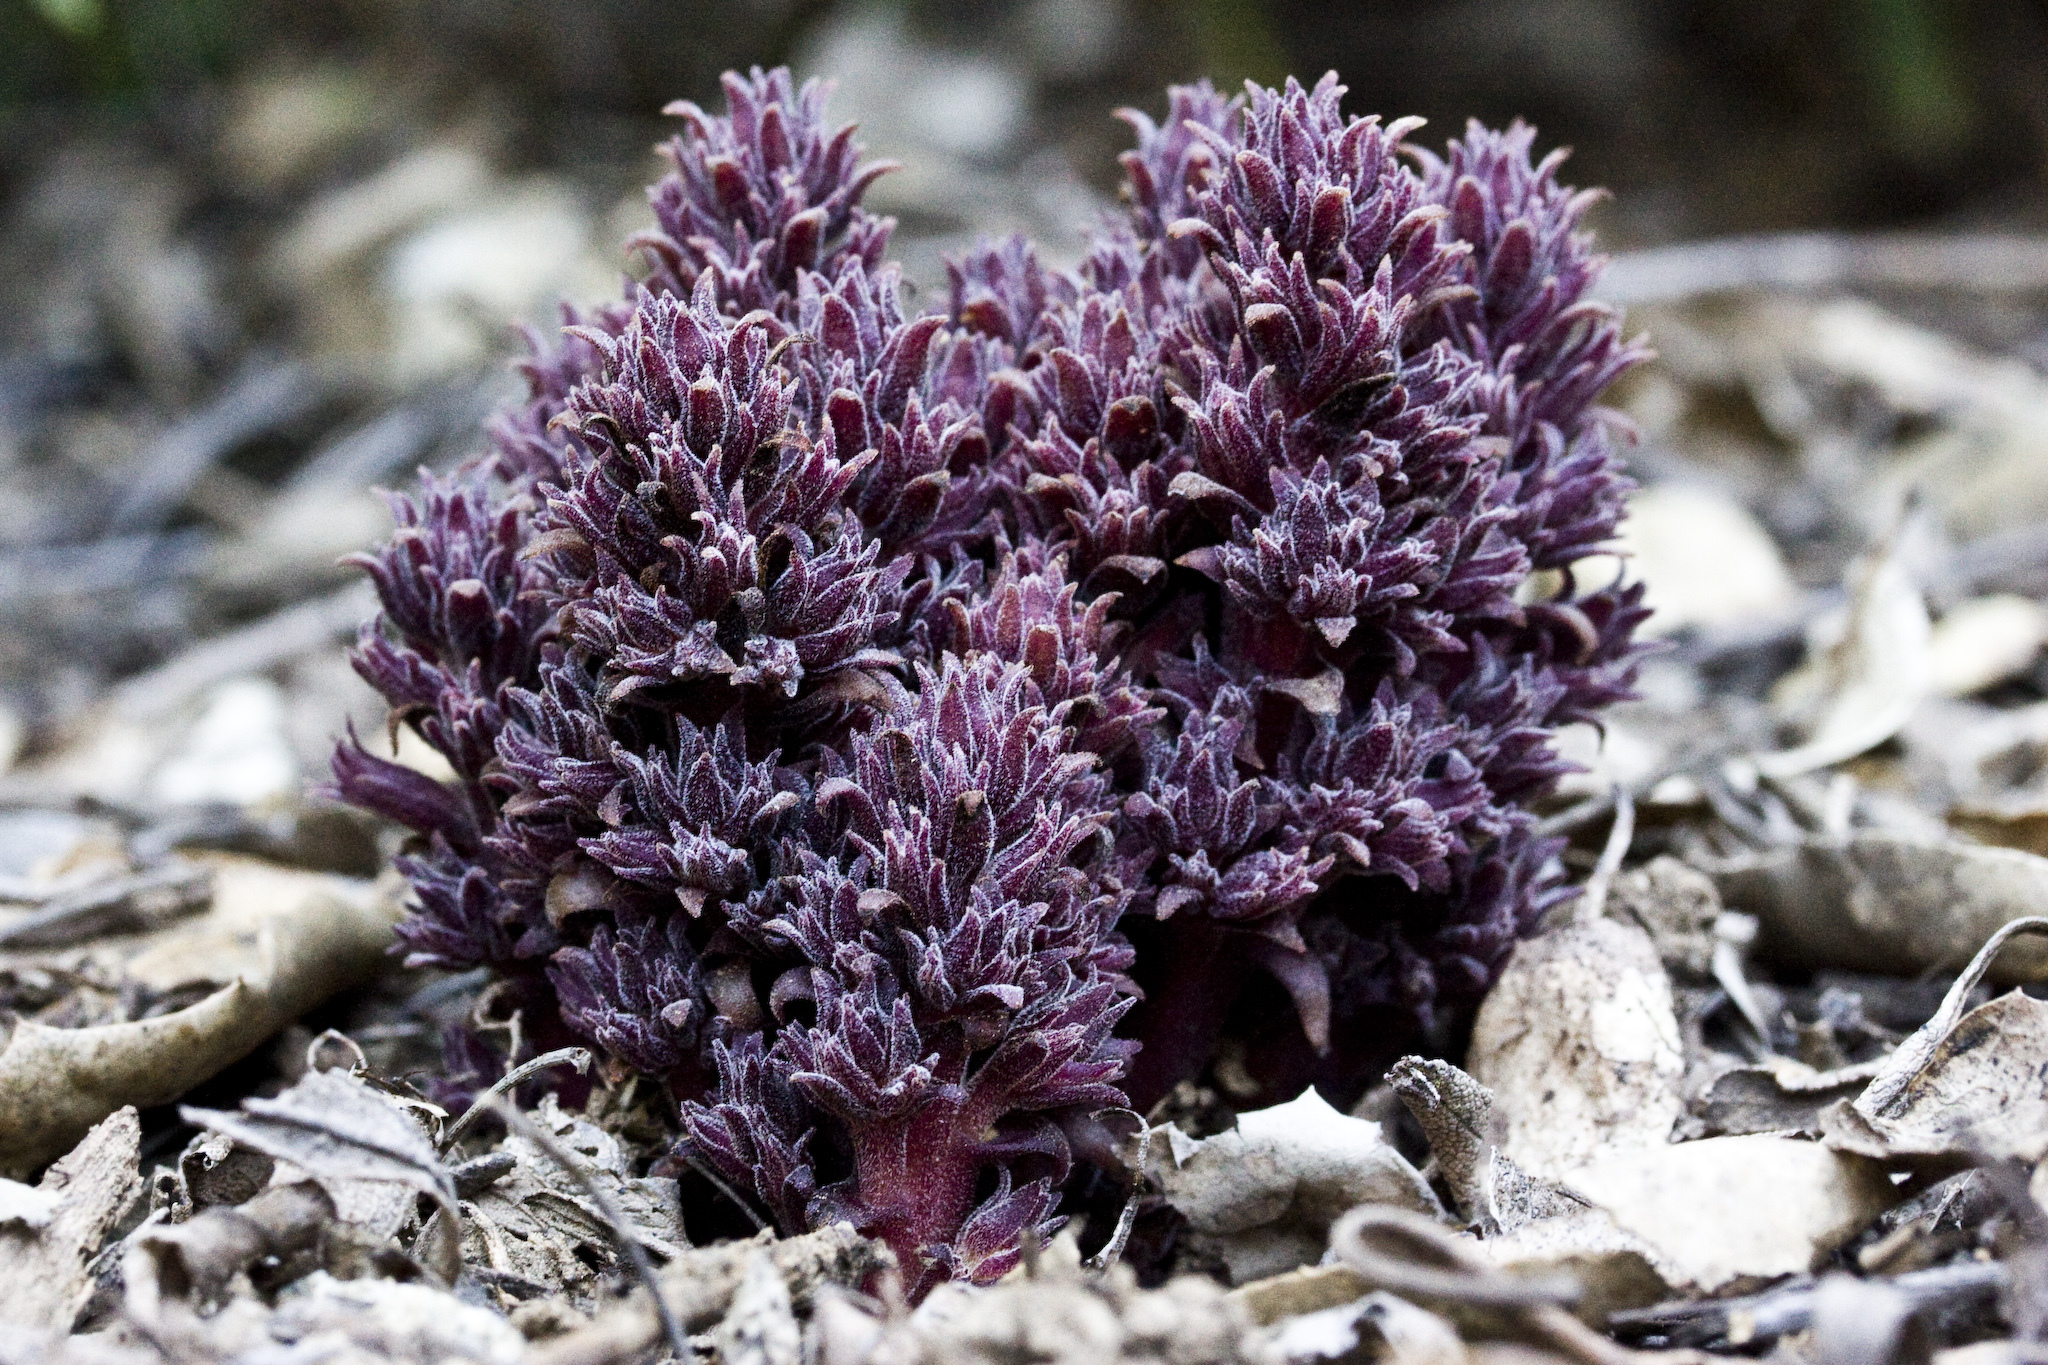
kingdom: Plantae
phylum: Tracheophyta
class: Magnoliopsida
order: Lamiales
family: Orobanchaceae
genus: Aphyllon
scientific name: Aphyllon tuberosum
